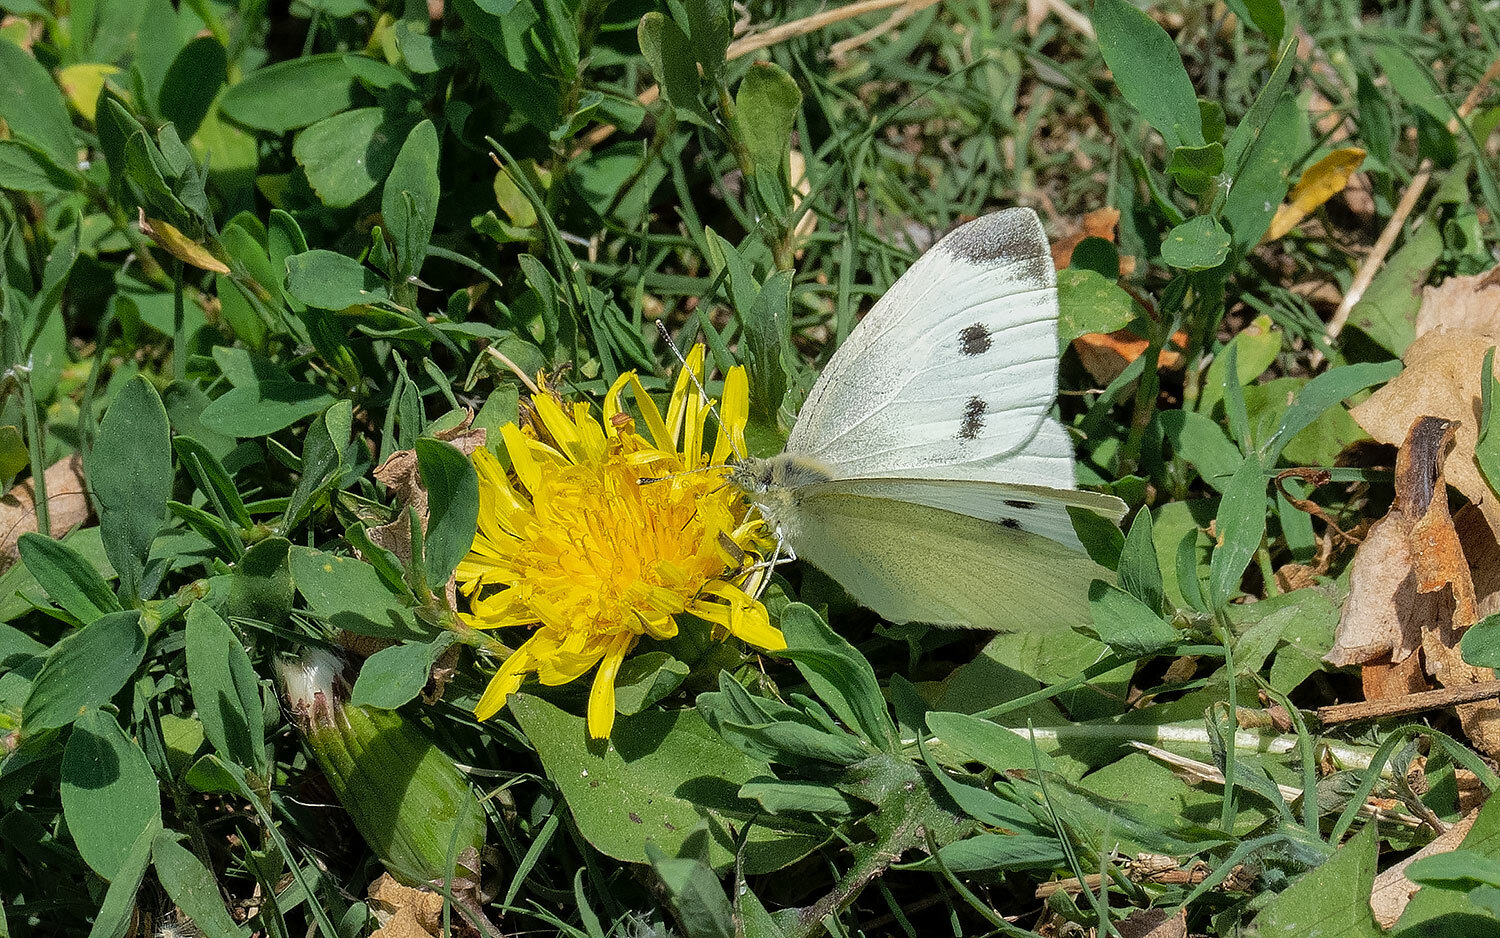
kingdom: Animalia
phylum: Arthropoda
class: Insecta
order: Lepidoptera
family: Pieridae
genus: Pieris
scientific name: Pieris rapae
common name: Small white
